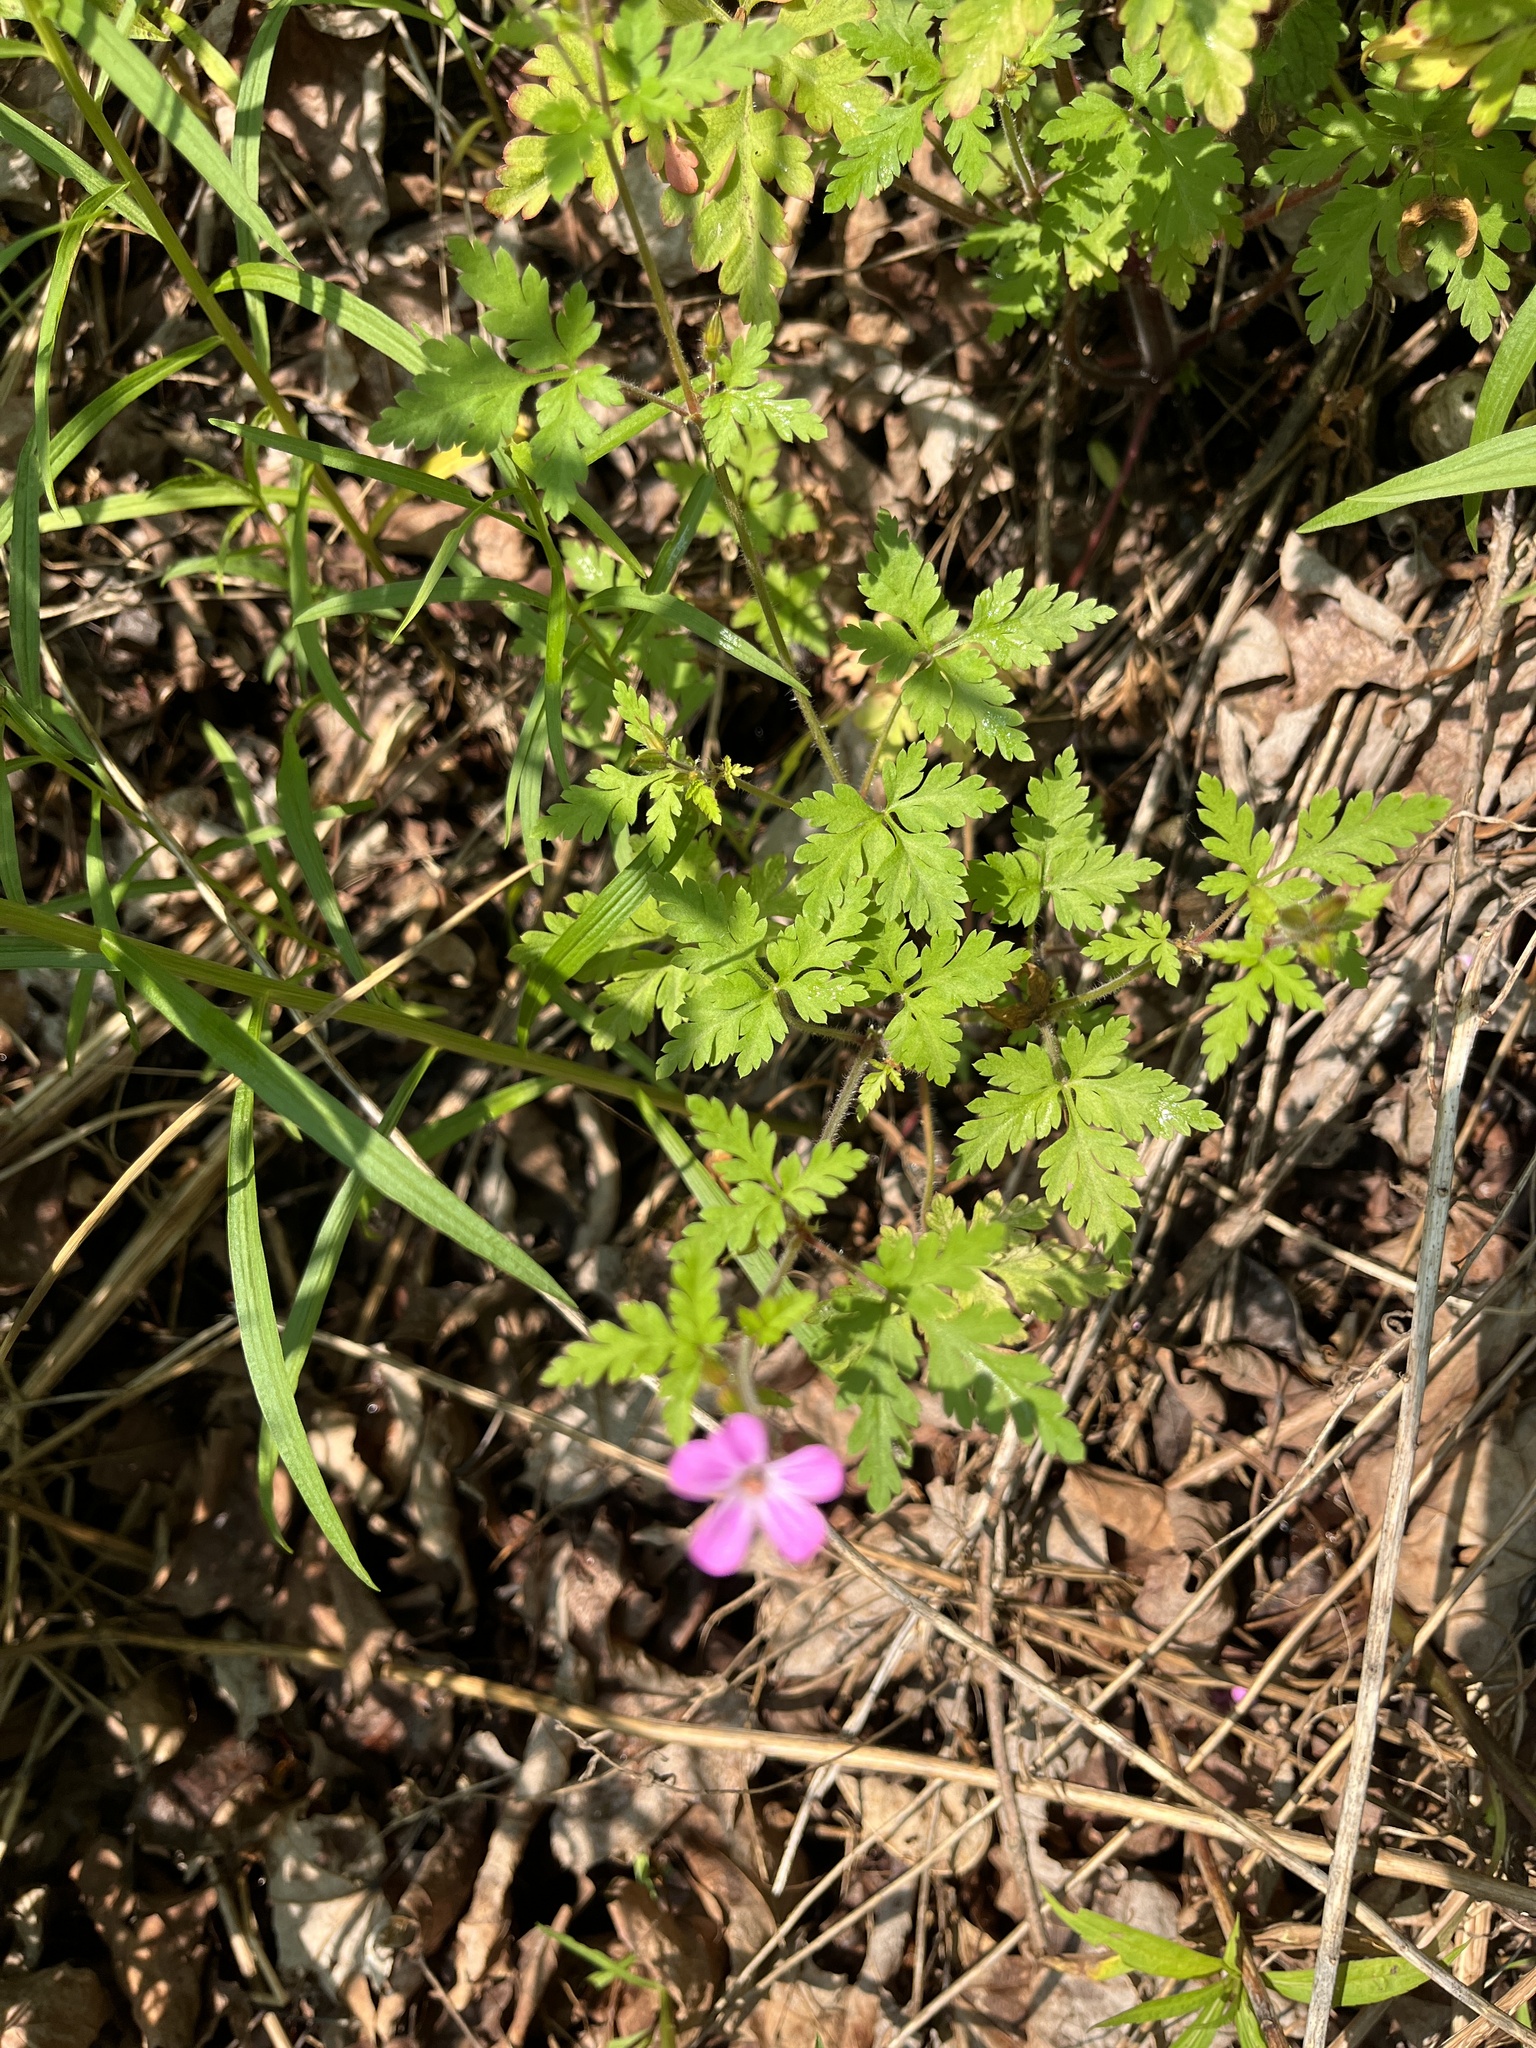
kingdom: Plantae
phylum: Tracheophyta
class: Magnoliopsida
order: Geraniales
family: Geraniaceae
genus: Geranium
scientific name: Geranium robertianum
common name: Herb-robert
